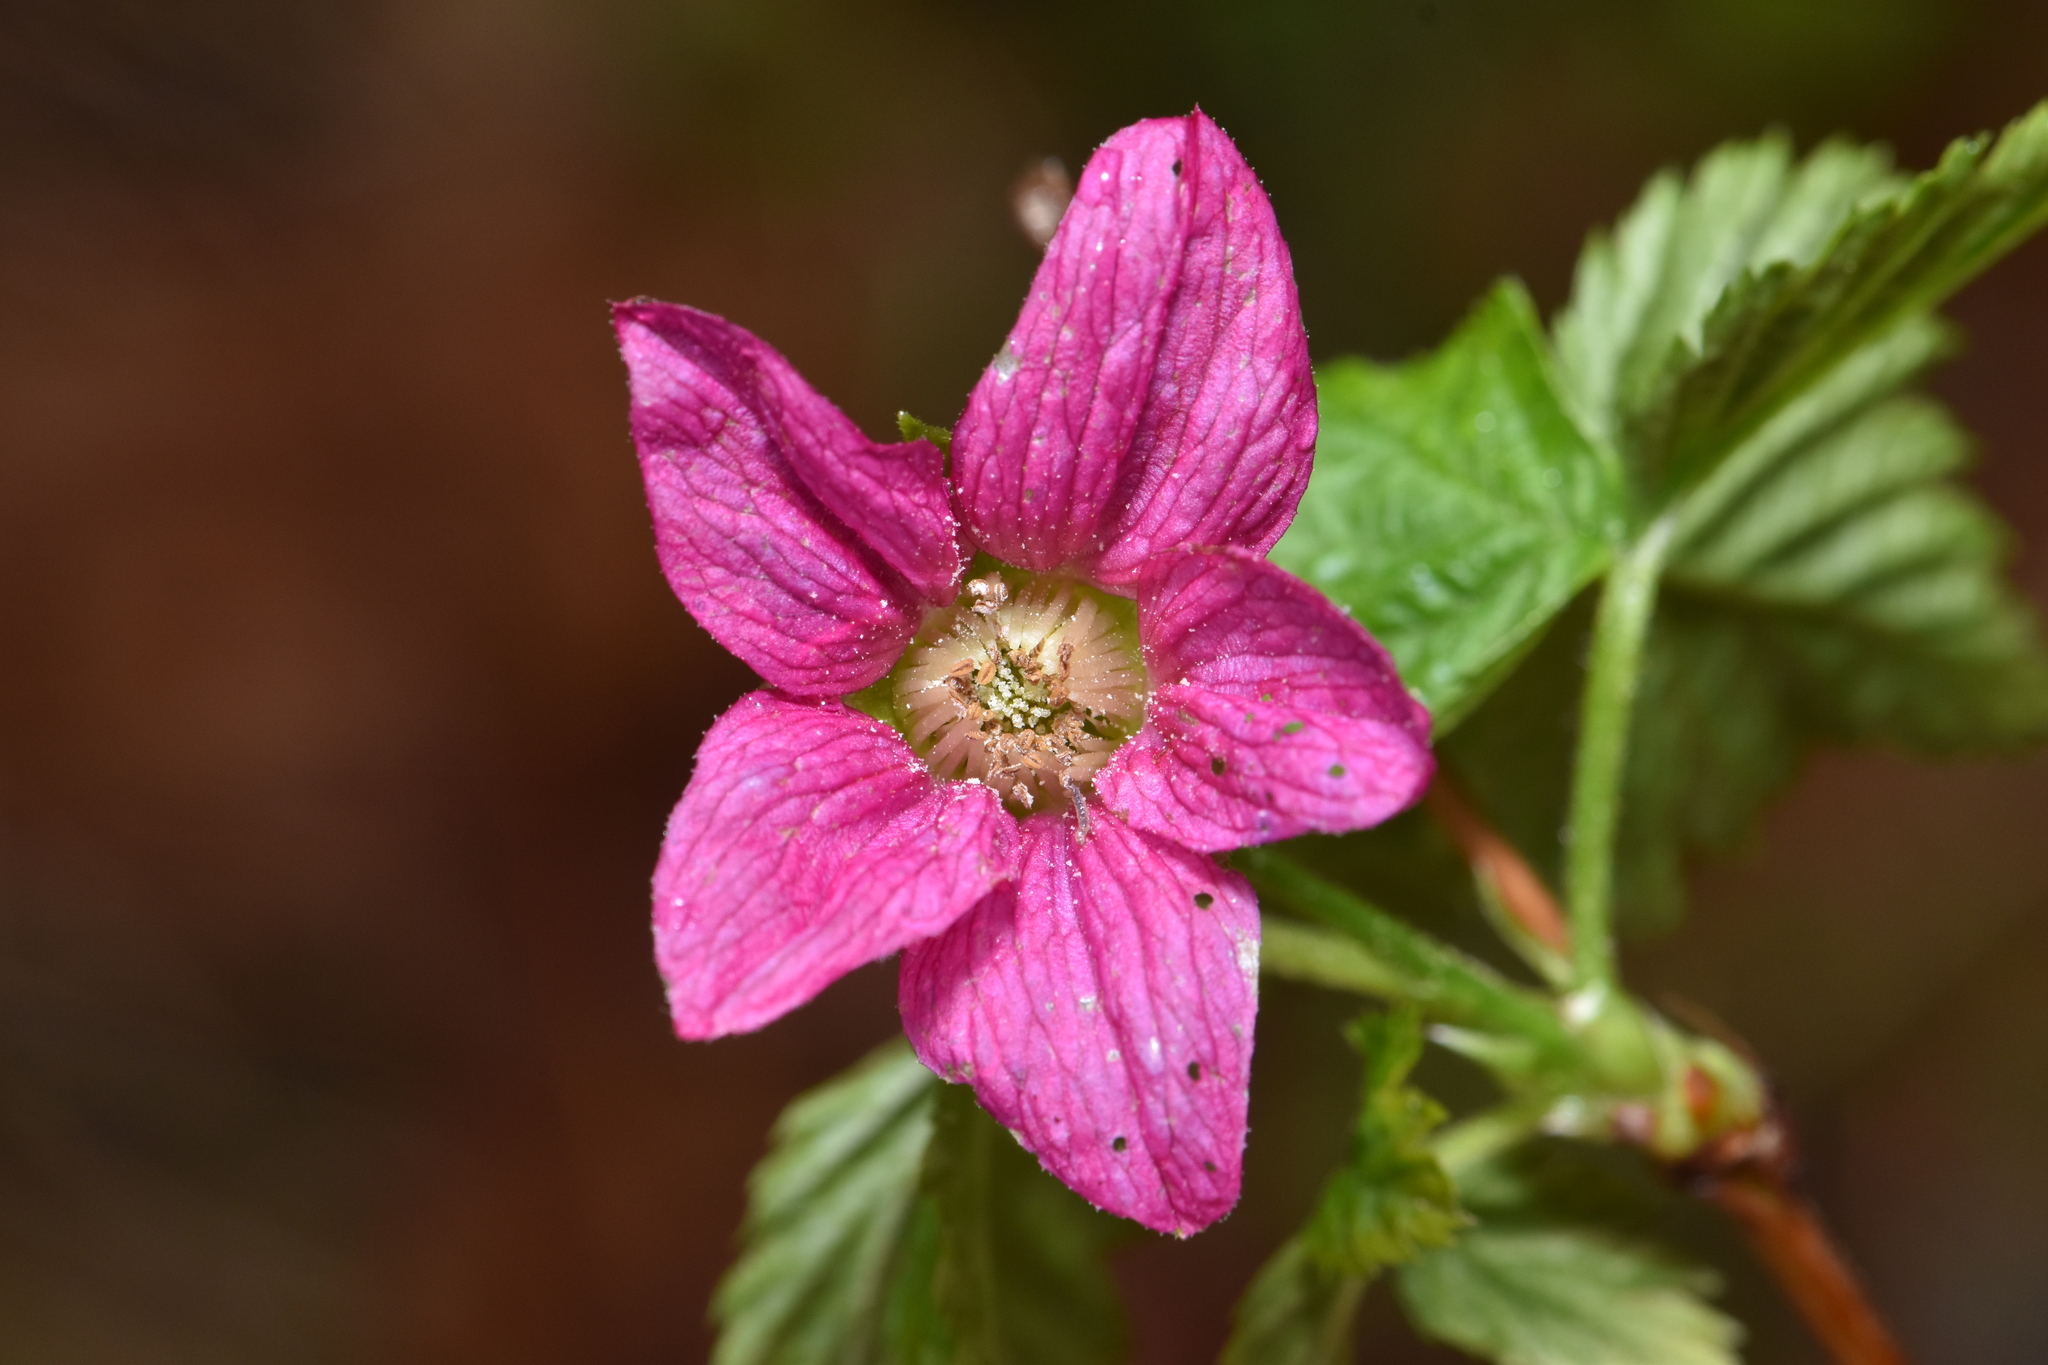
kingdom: Plantae
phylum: Tracheophyta
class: Magnoliopsida
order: Rosales
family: Rosaceae
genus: Rubus
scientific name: Rubus spectabilis
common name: Salmonberry
